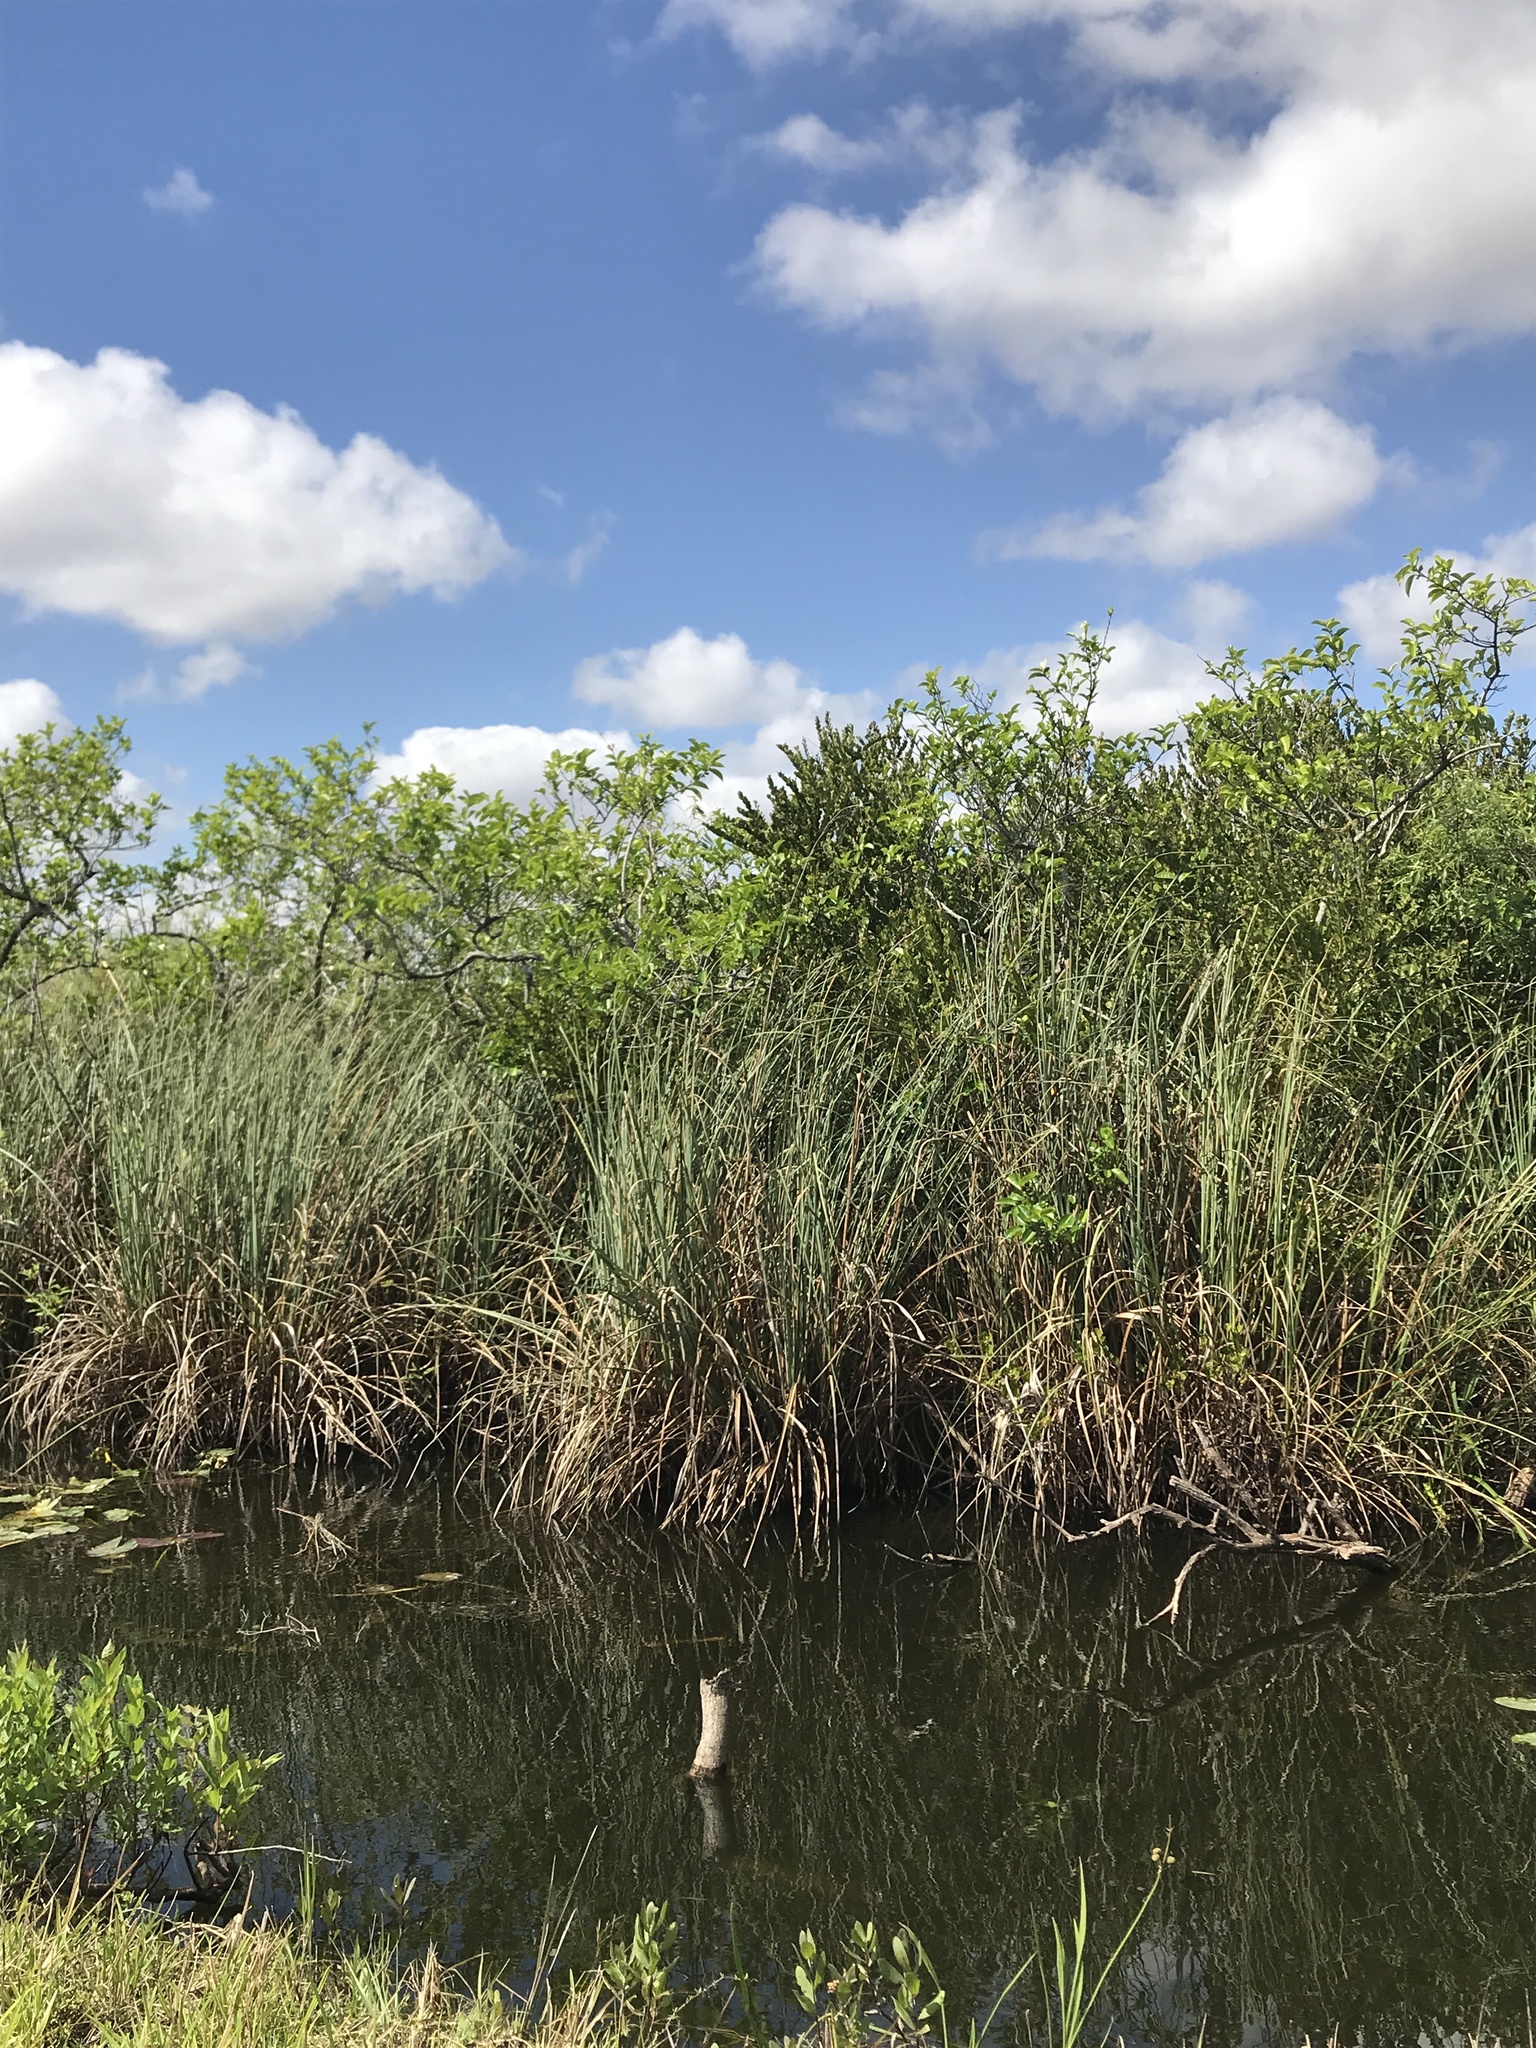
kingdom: Plantae
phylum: Tracheophyta
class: Liliopsida
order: Poales
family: Cyperaceae
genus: Cladium
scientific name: Cladium mariscus
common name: Great fen-sedge
